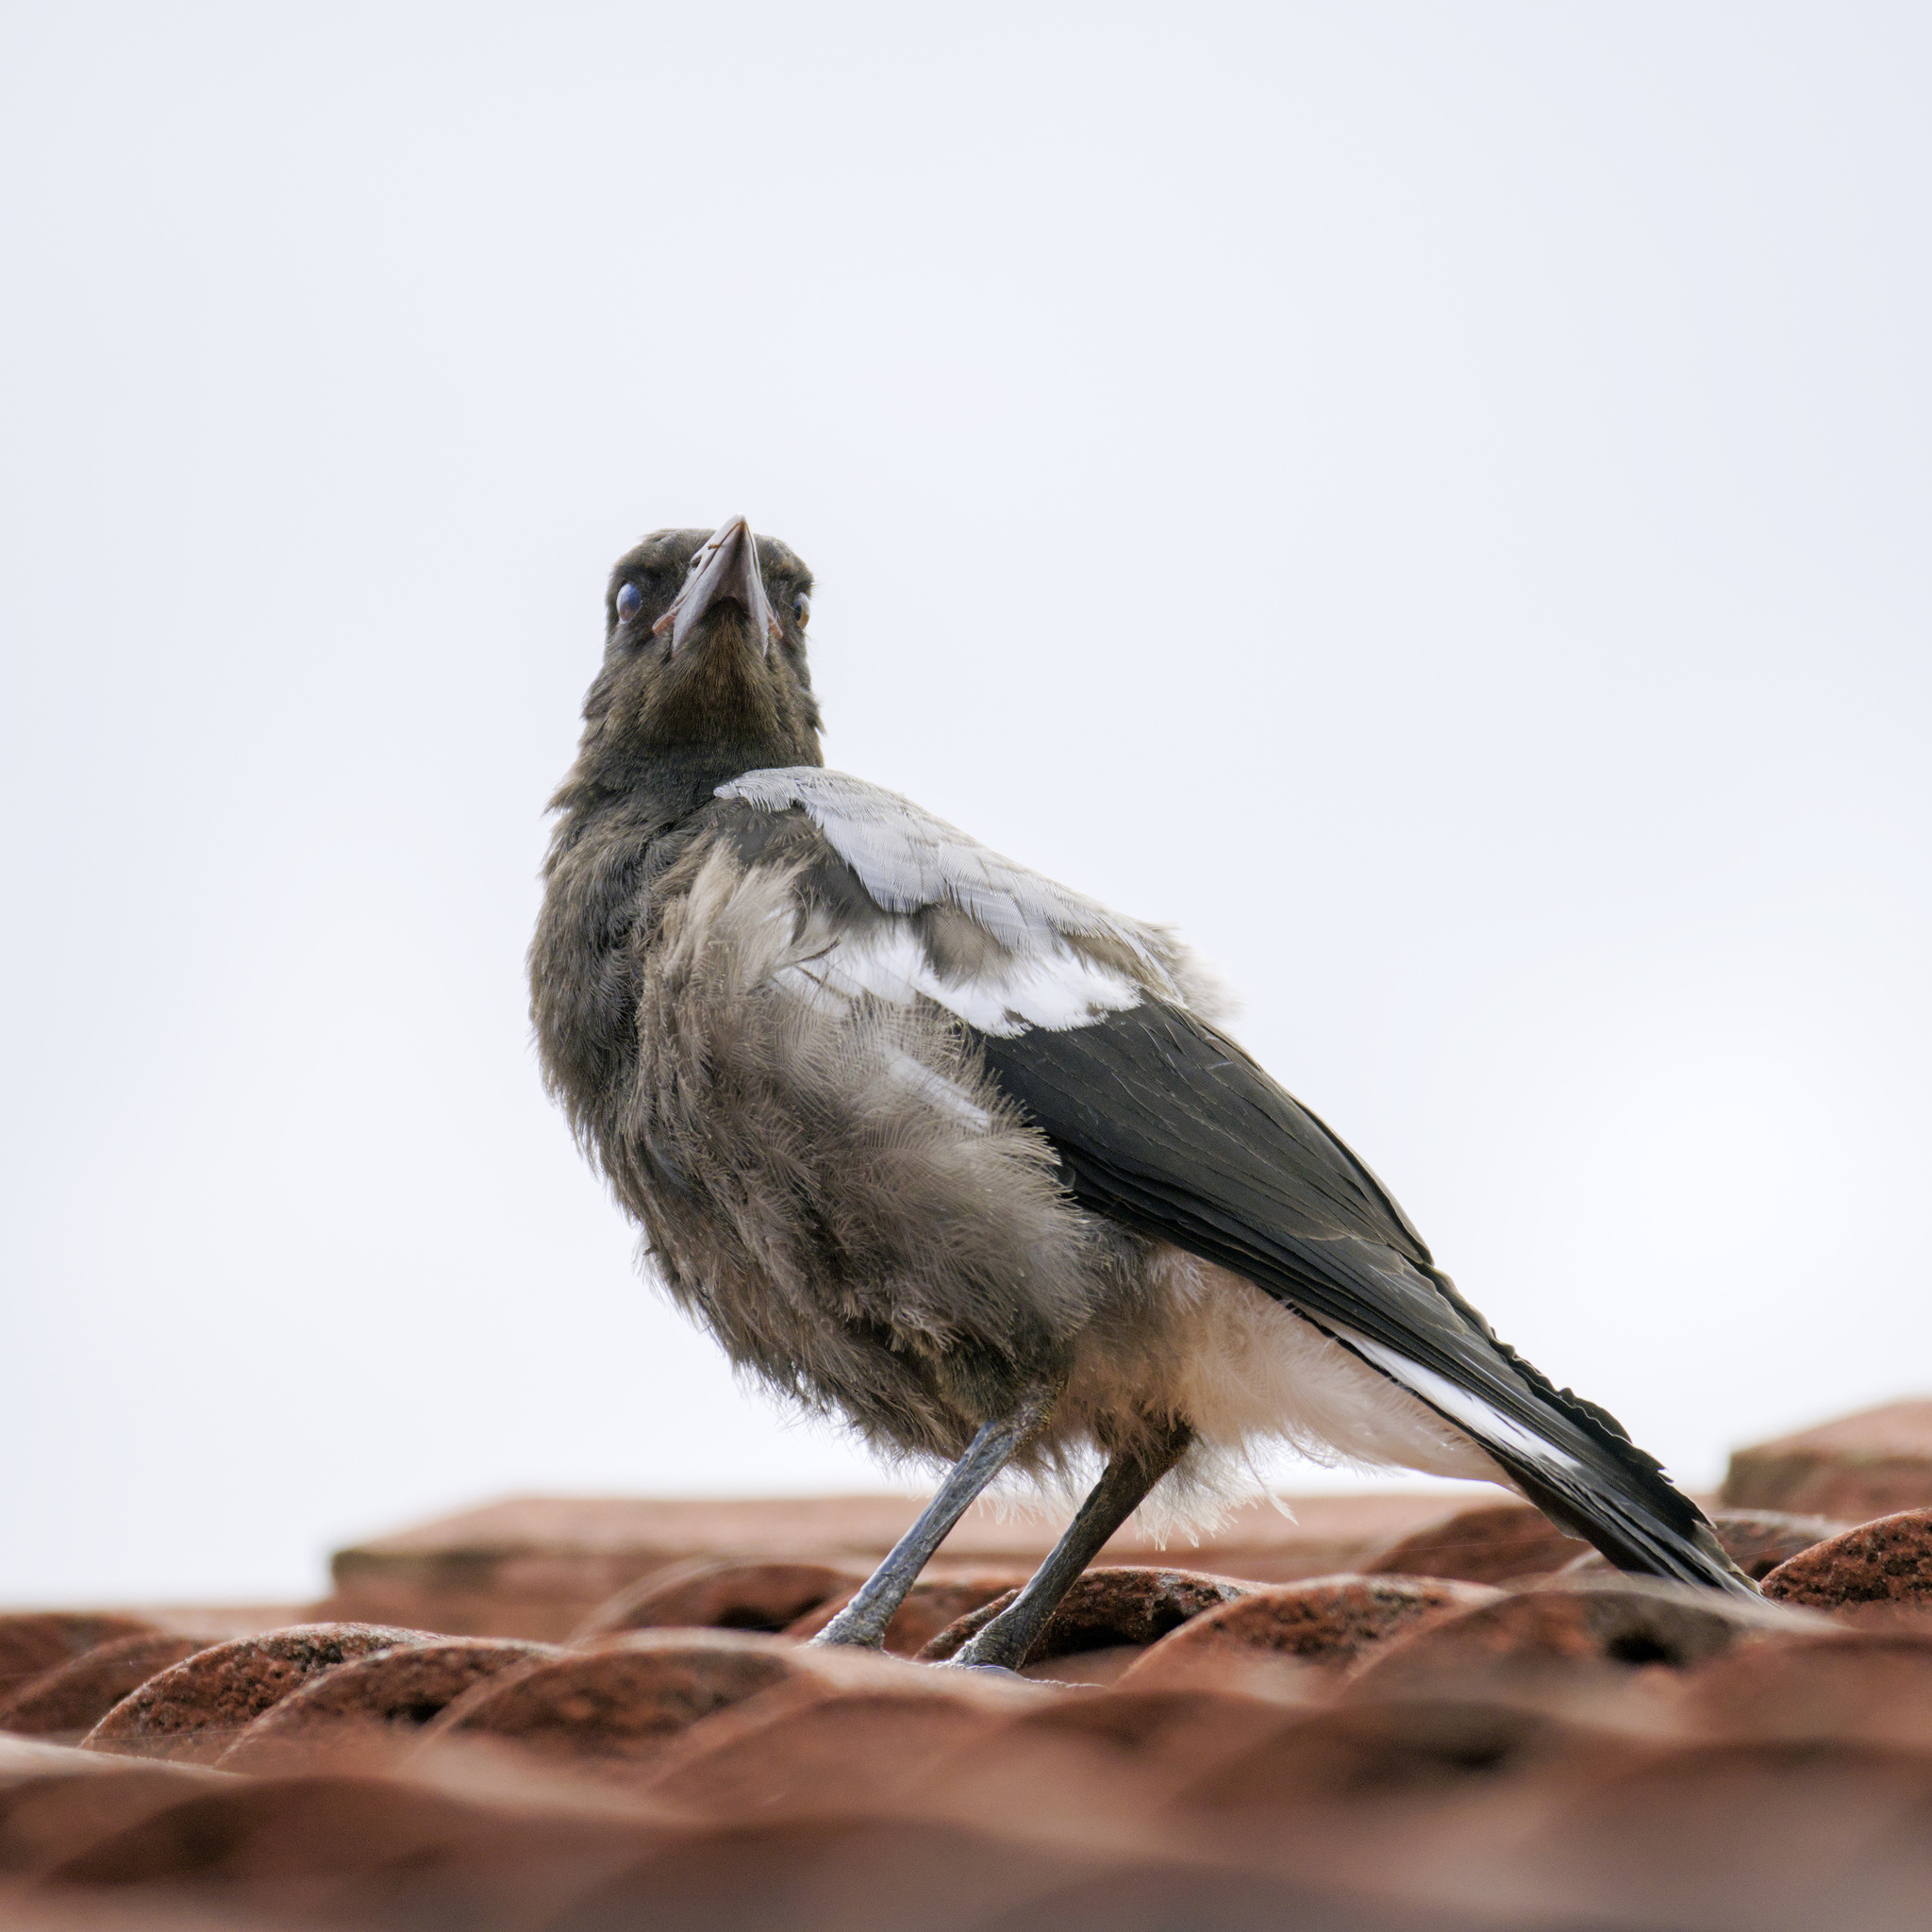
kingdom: Animalia
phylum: Chordata
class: Aves
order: Passeriformes
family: Cracticidae
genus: Gymnorhina
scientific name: Gymnorhina tibicen
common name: Australian magpie
